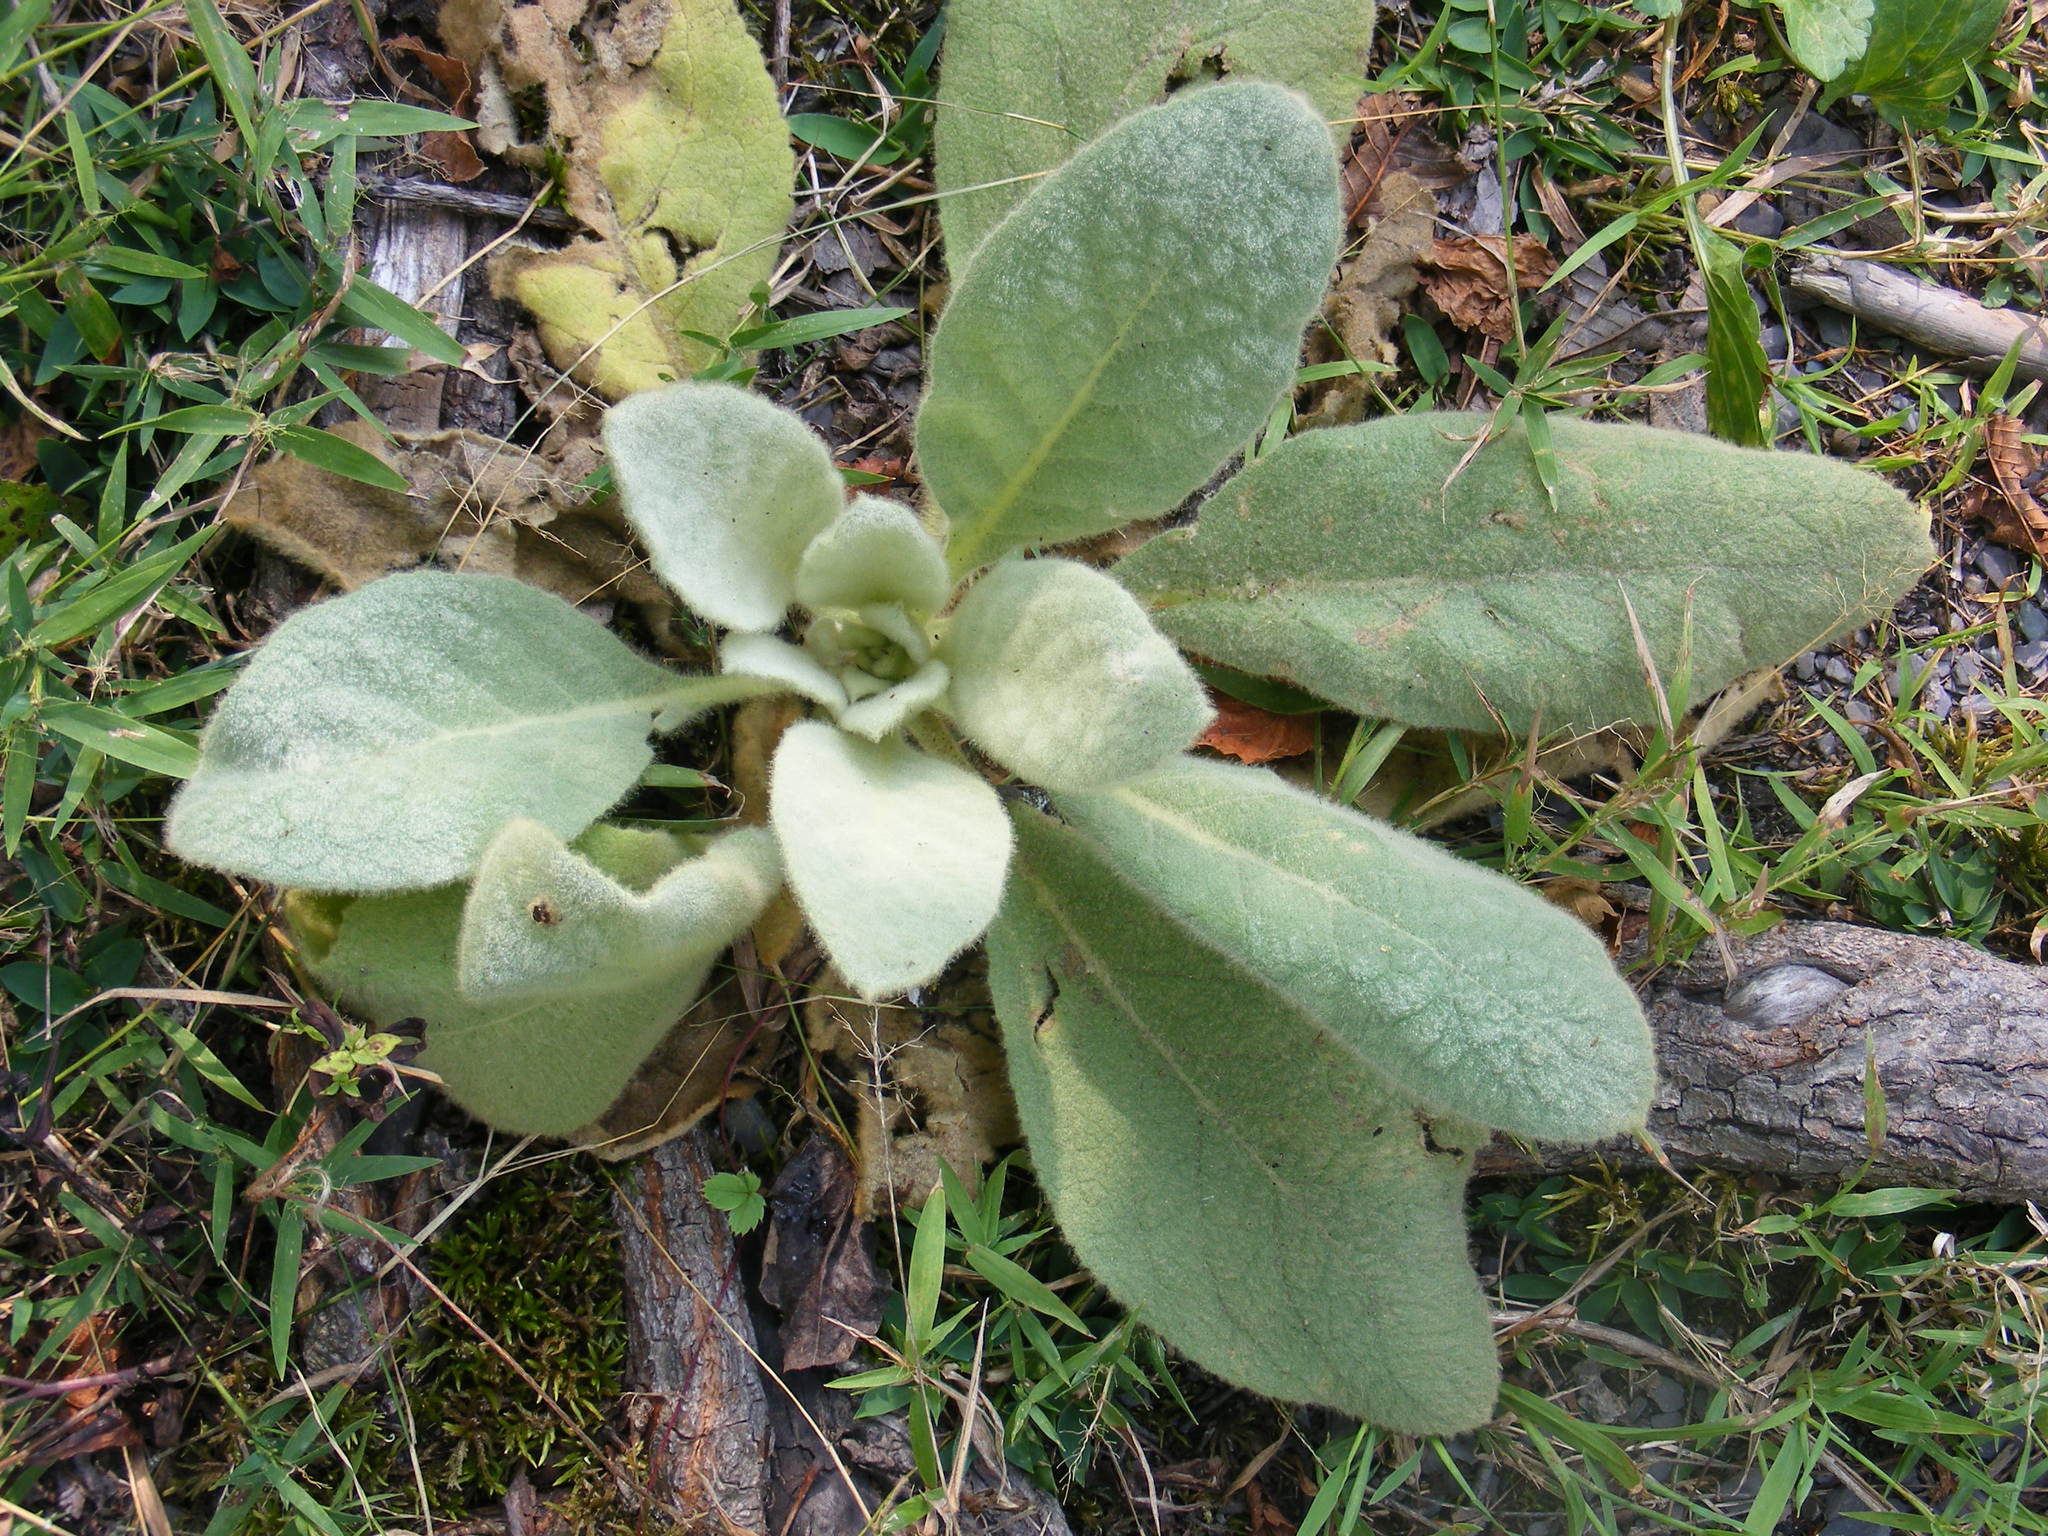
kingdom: Plantae
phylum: Tracheophyta
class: Magnoliopsida
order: Lamiales
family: Scrophulariaceae
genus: Verbascum
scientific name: Verbascum thapsus
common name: Common mullein
